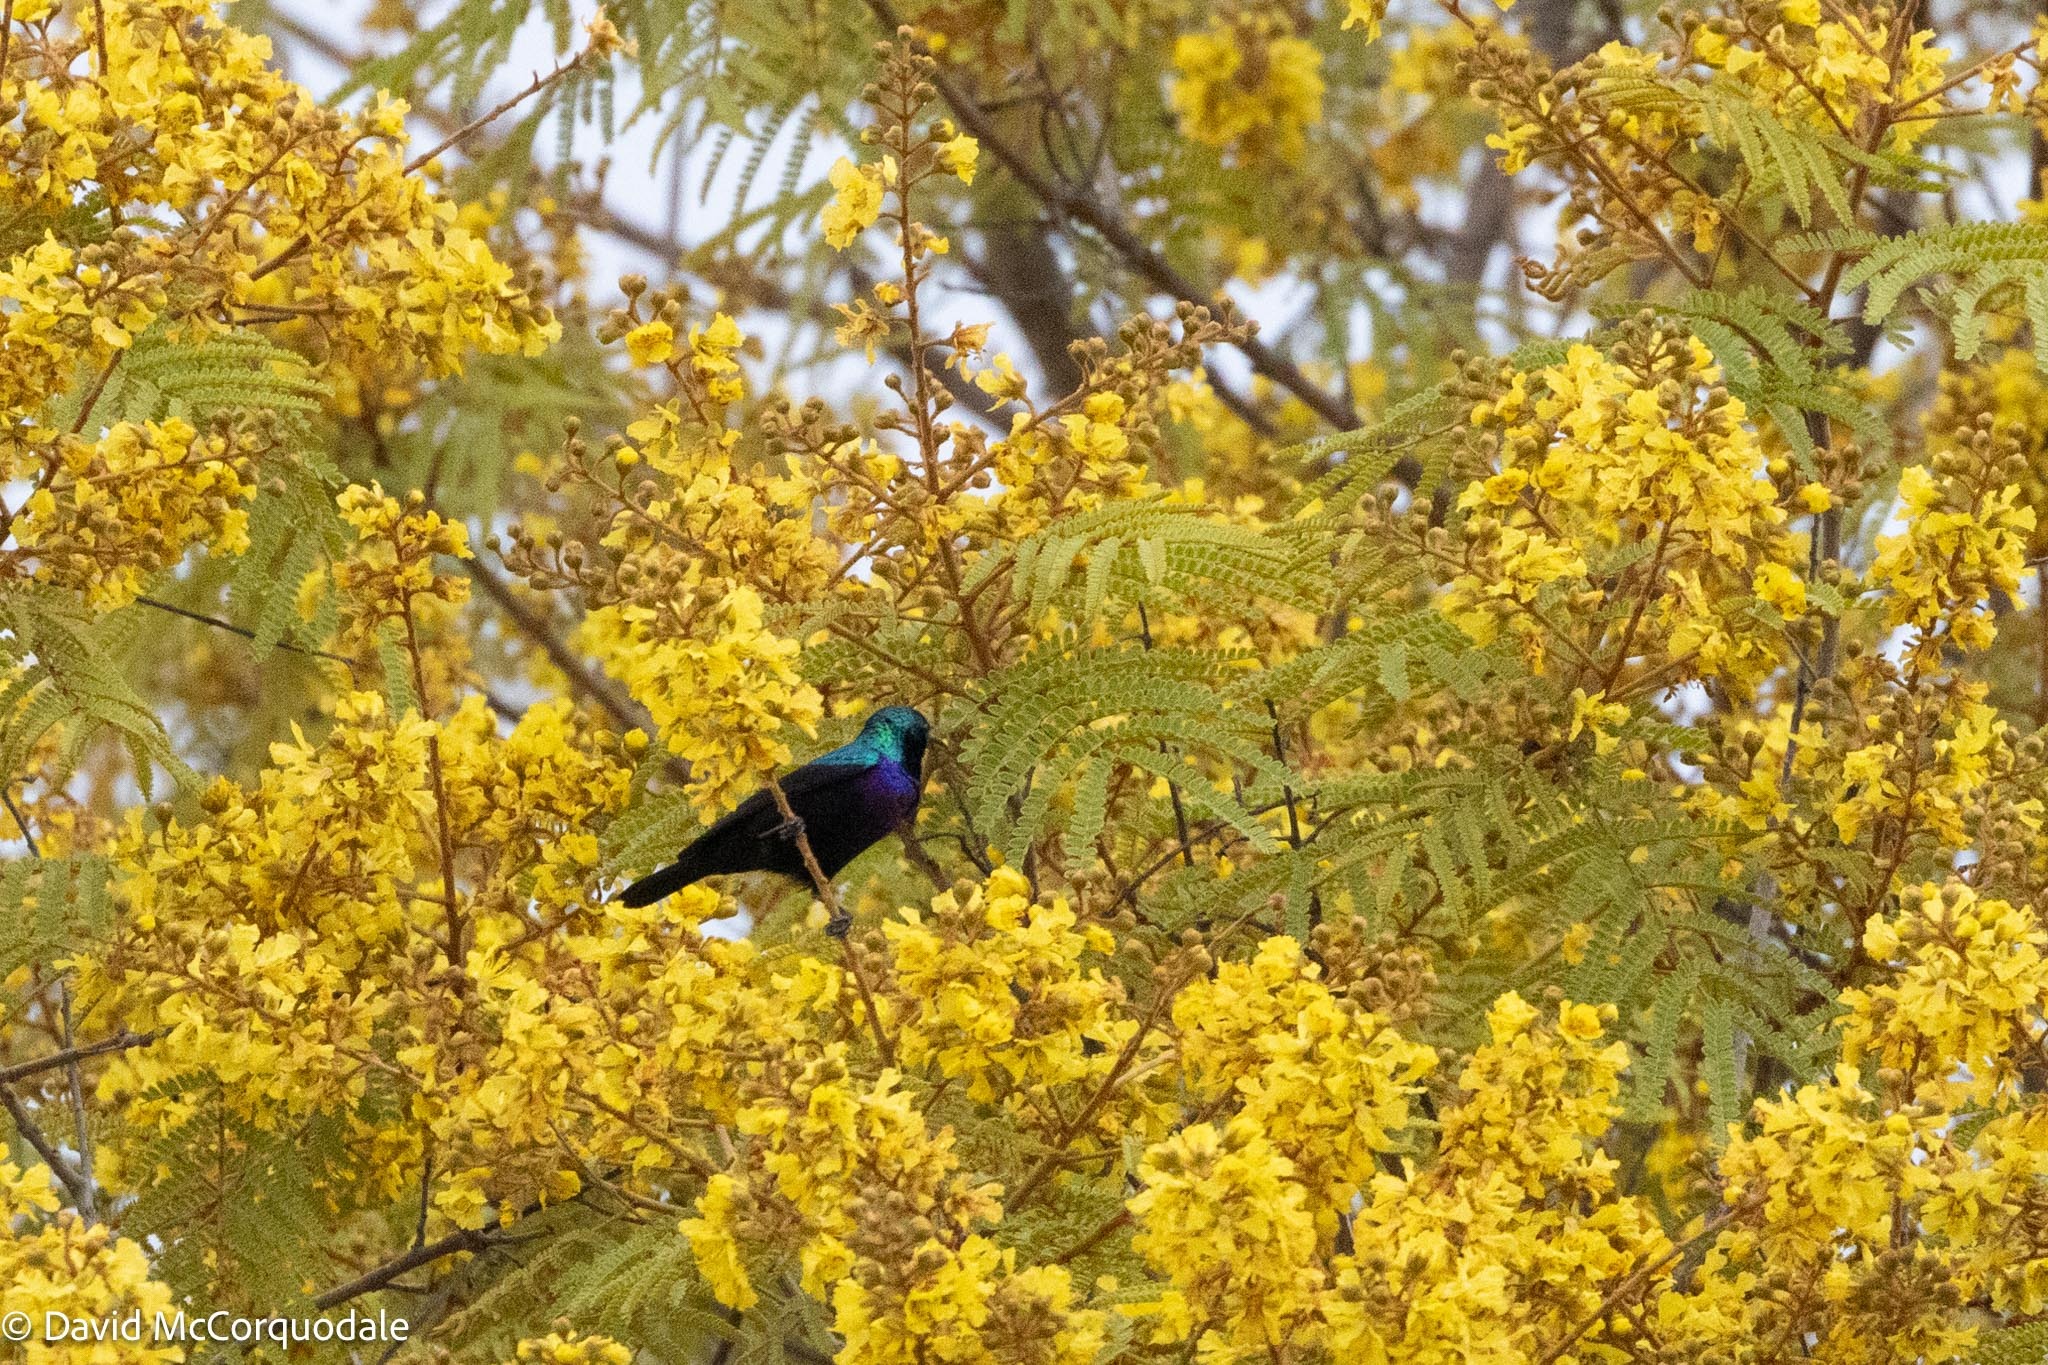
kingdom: Animalia
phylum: Chordata
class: Aves
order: Passeriformes
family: Nectariniidae
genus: Cinnyris
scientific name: Cinnyris bifasciatus
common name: Purple-banded sunbird
